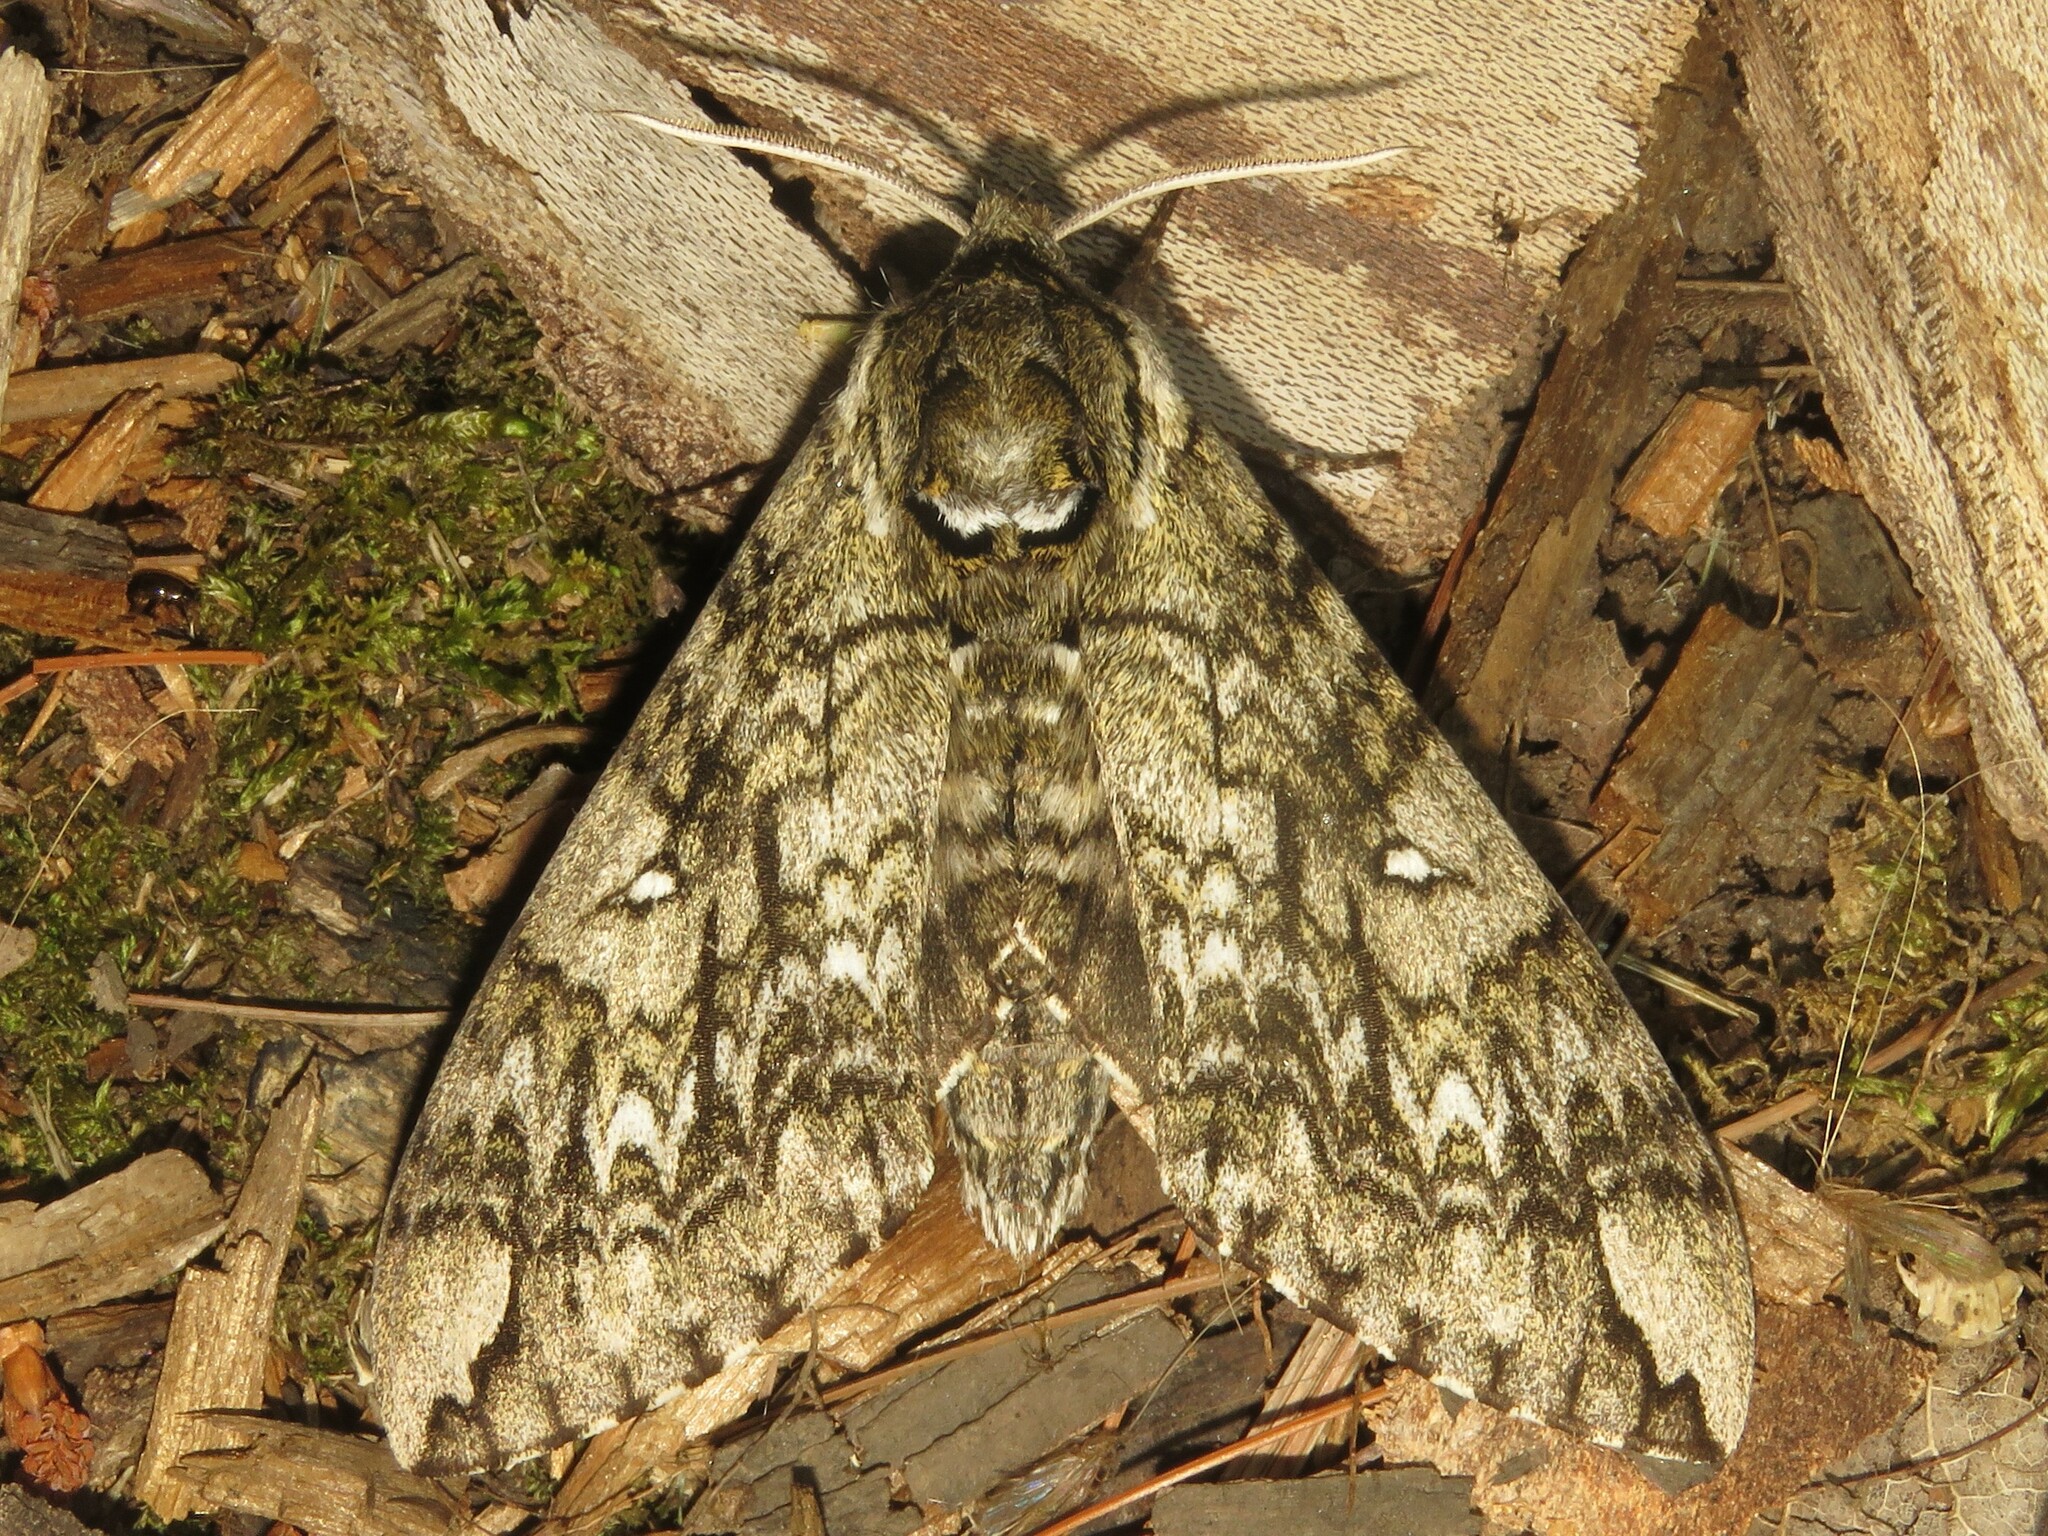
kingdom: Animalia
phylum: Arthropoda
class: Insecta
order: Lepidoptera
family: Sphingidae
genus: Ceratomia
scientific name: Ceratomia undulosa
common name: Waved sphinx
